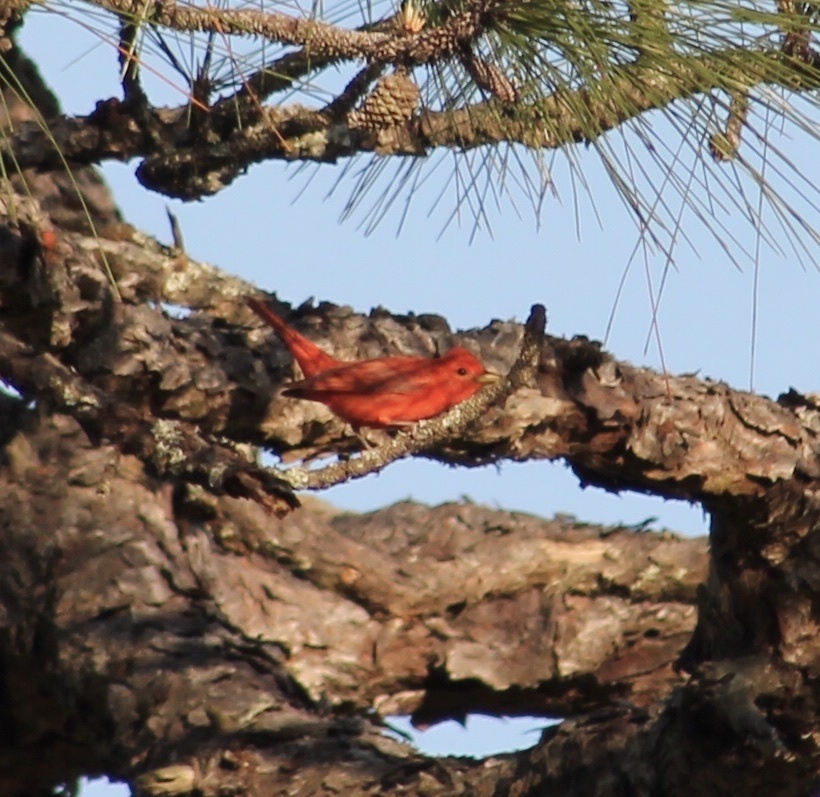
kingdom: Animalia
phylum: Chordata
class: Aves
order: Passeriformes
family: Cardinalidae
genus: Piranga
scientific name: Piranga rubra
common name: Summer tanager
